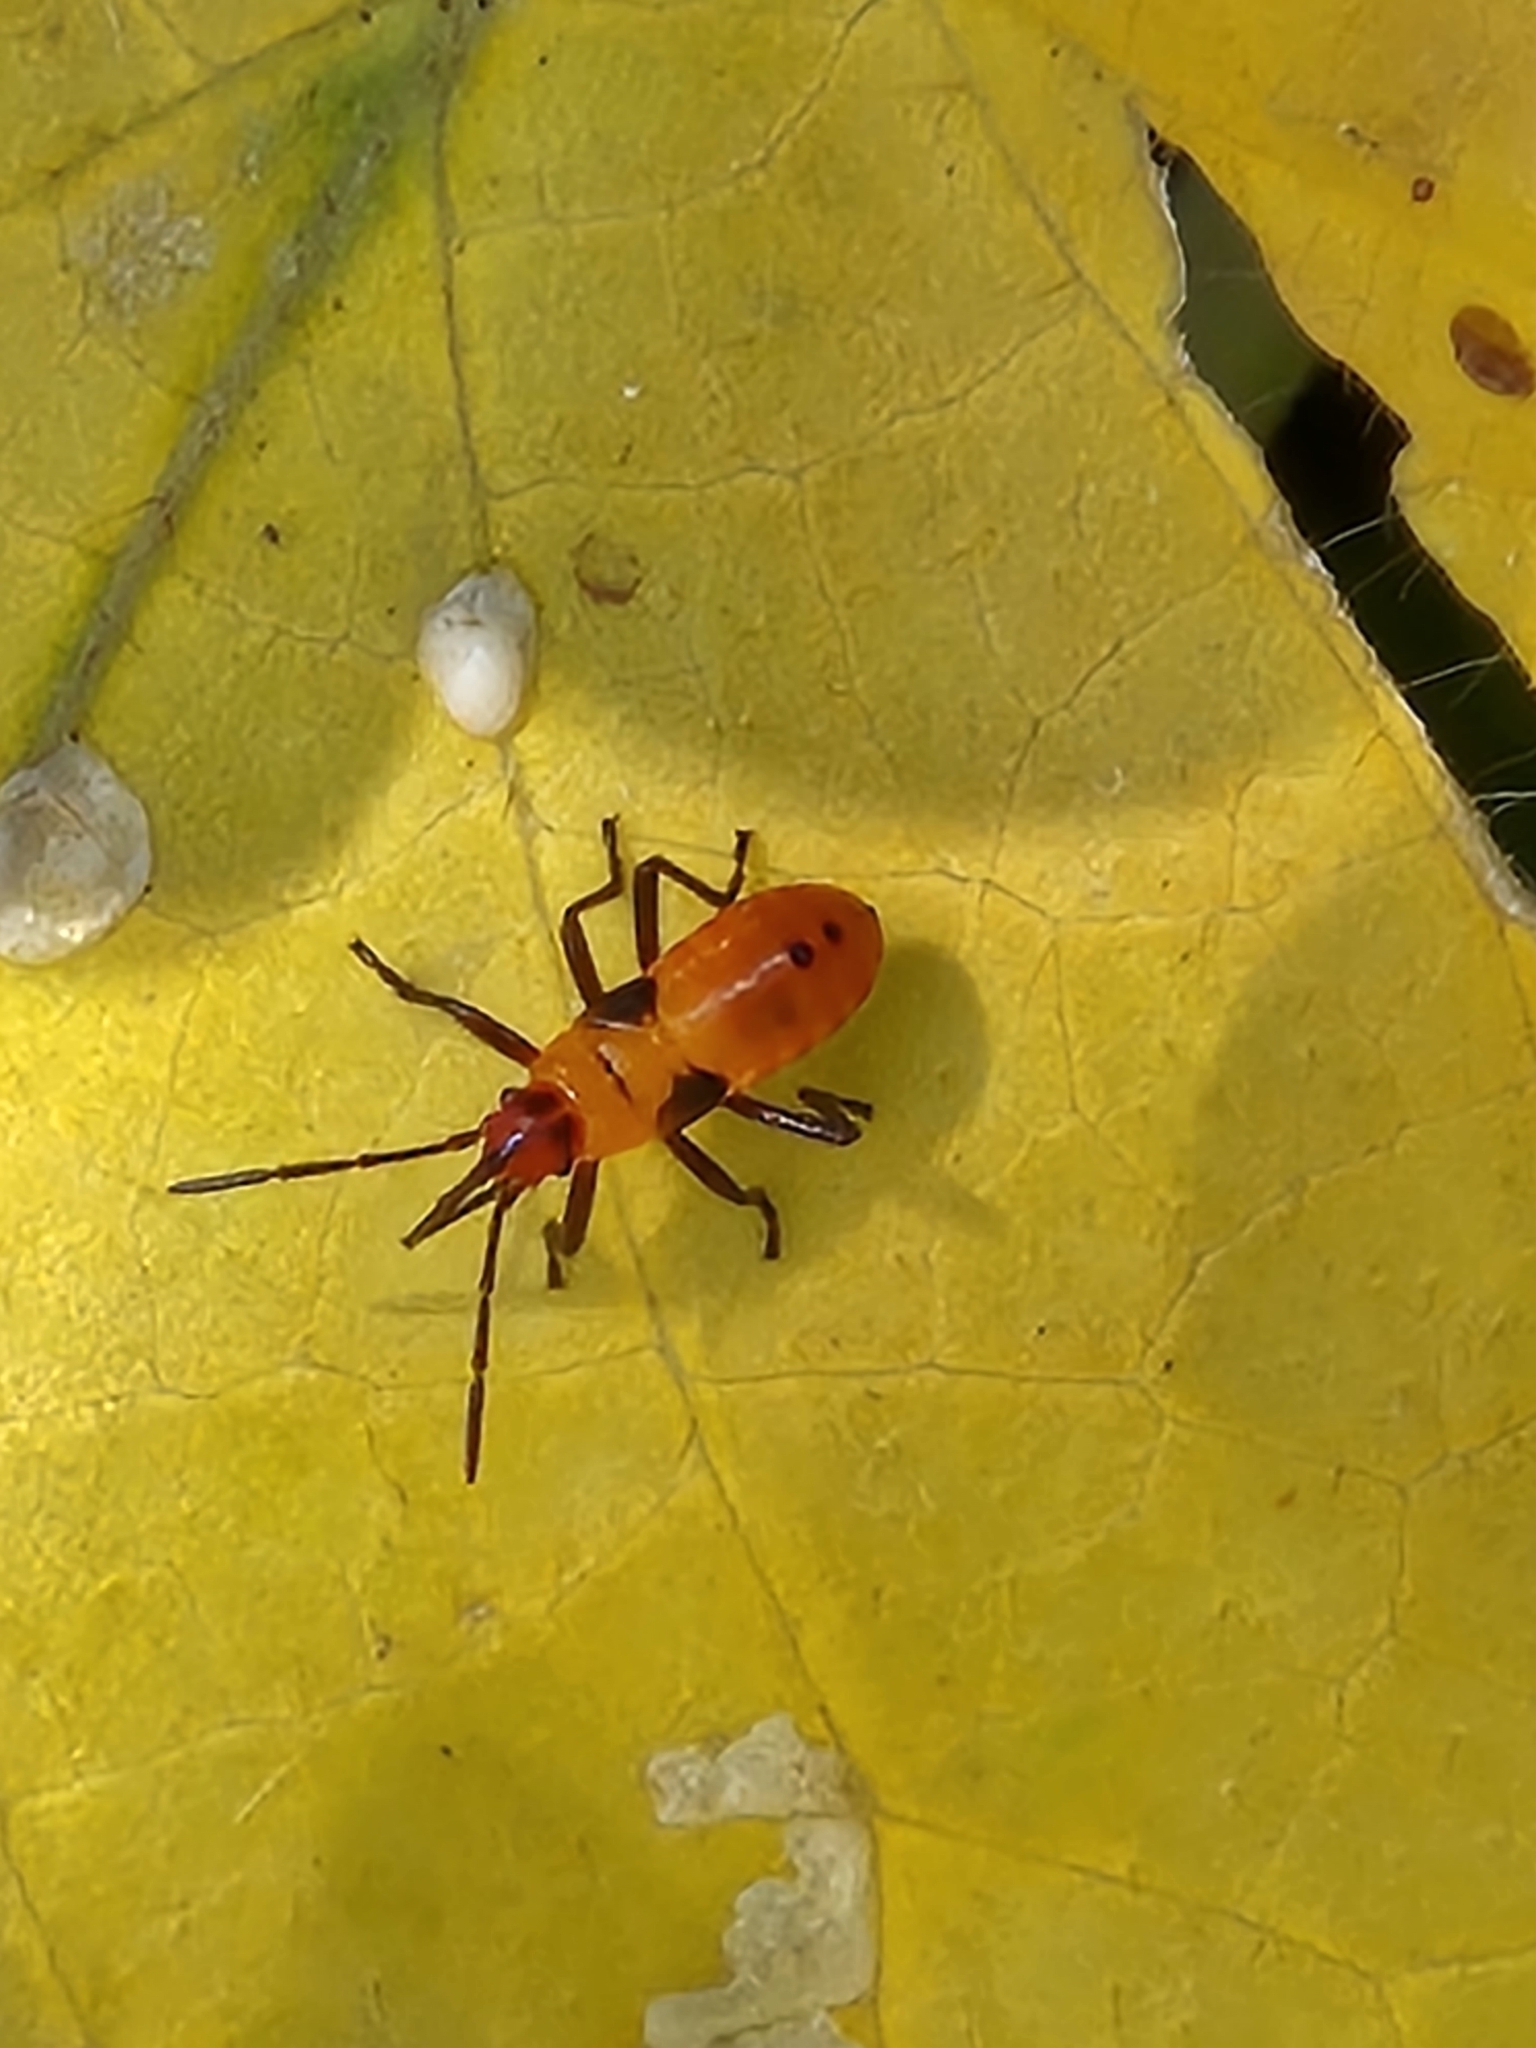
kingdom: Animalia
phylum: Arthropoda
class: Insecta
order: Hemiptera
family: Lygaeidae
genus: Oncopeltus
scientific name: Oncopeltus fasciatus
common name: Large milkweed bug
